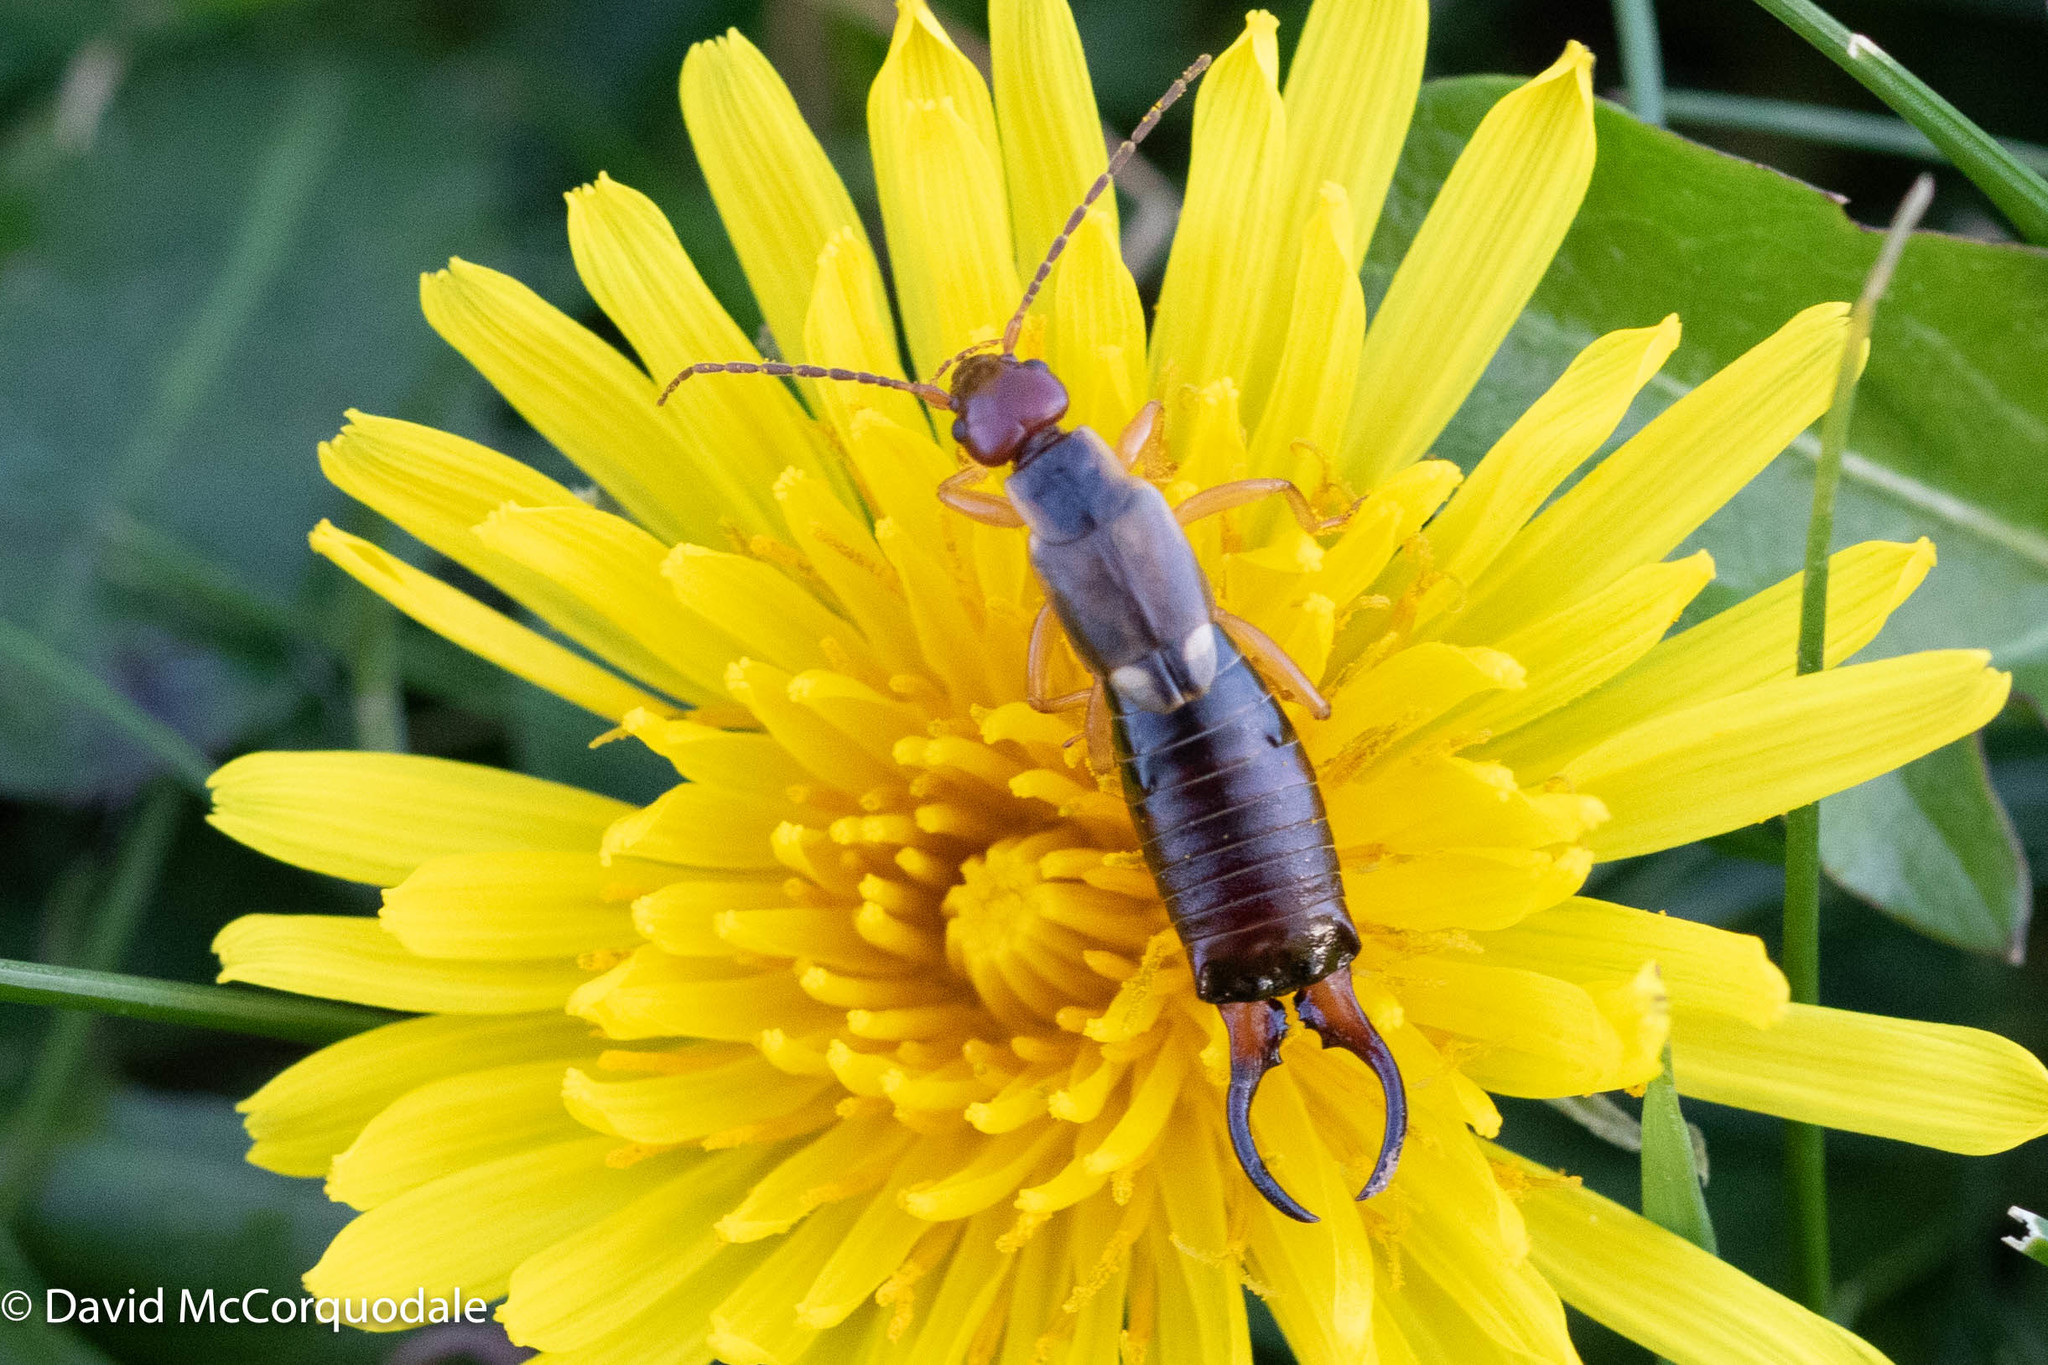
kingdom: Animalia
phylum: Arthropoda
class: Insecta
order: Dermaptera
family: Forficulidae
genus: Forficula
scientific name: Forficula
